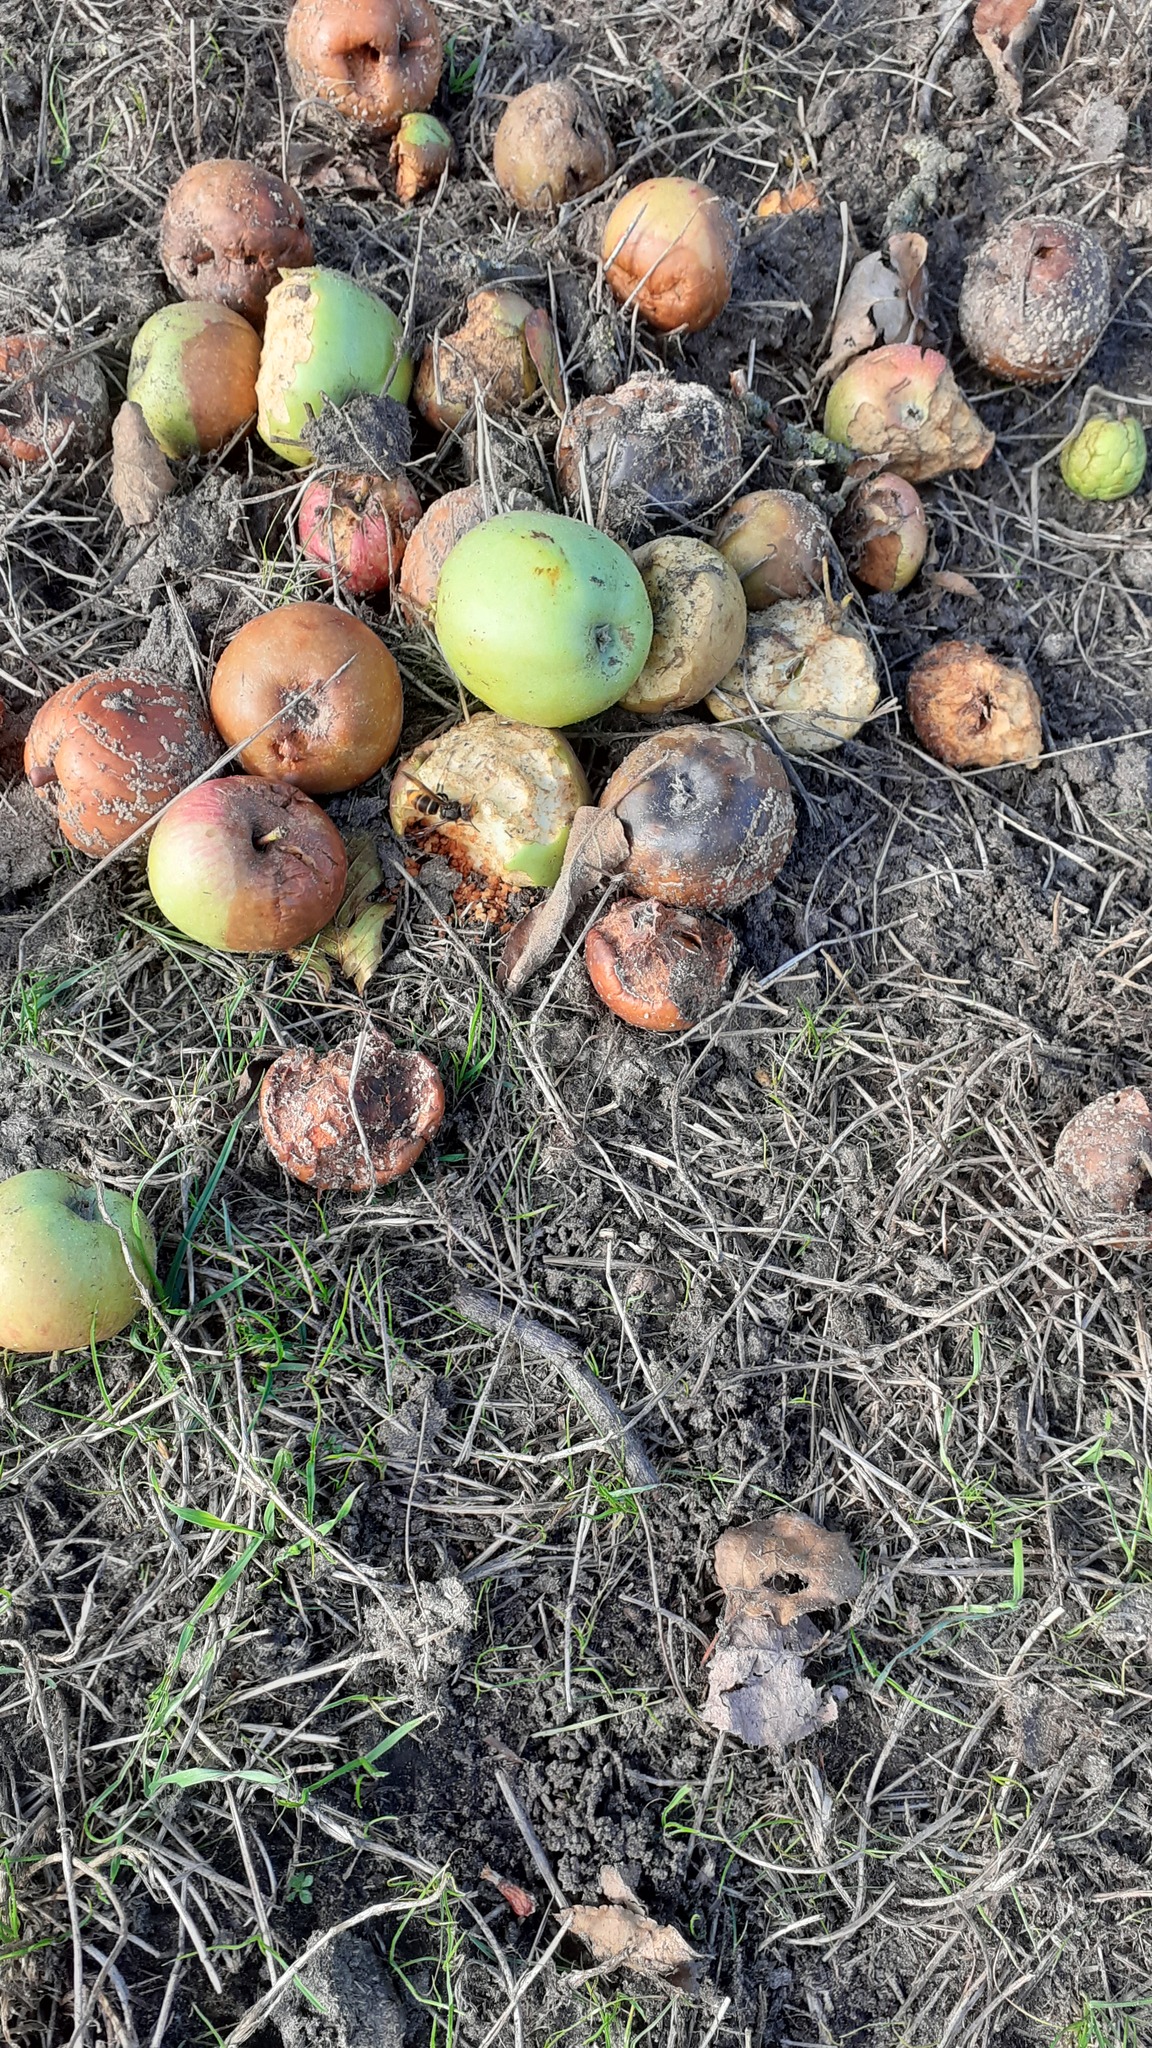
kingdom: Animalia
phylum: Arthropoda
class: Insecta
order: Hymenoptera
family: Vespidae
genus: Vespa
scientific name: Vespa velutina
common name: Asian hornet
